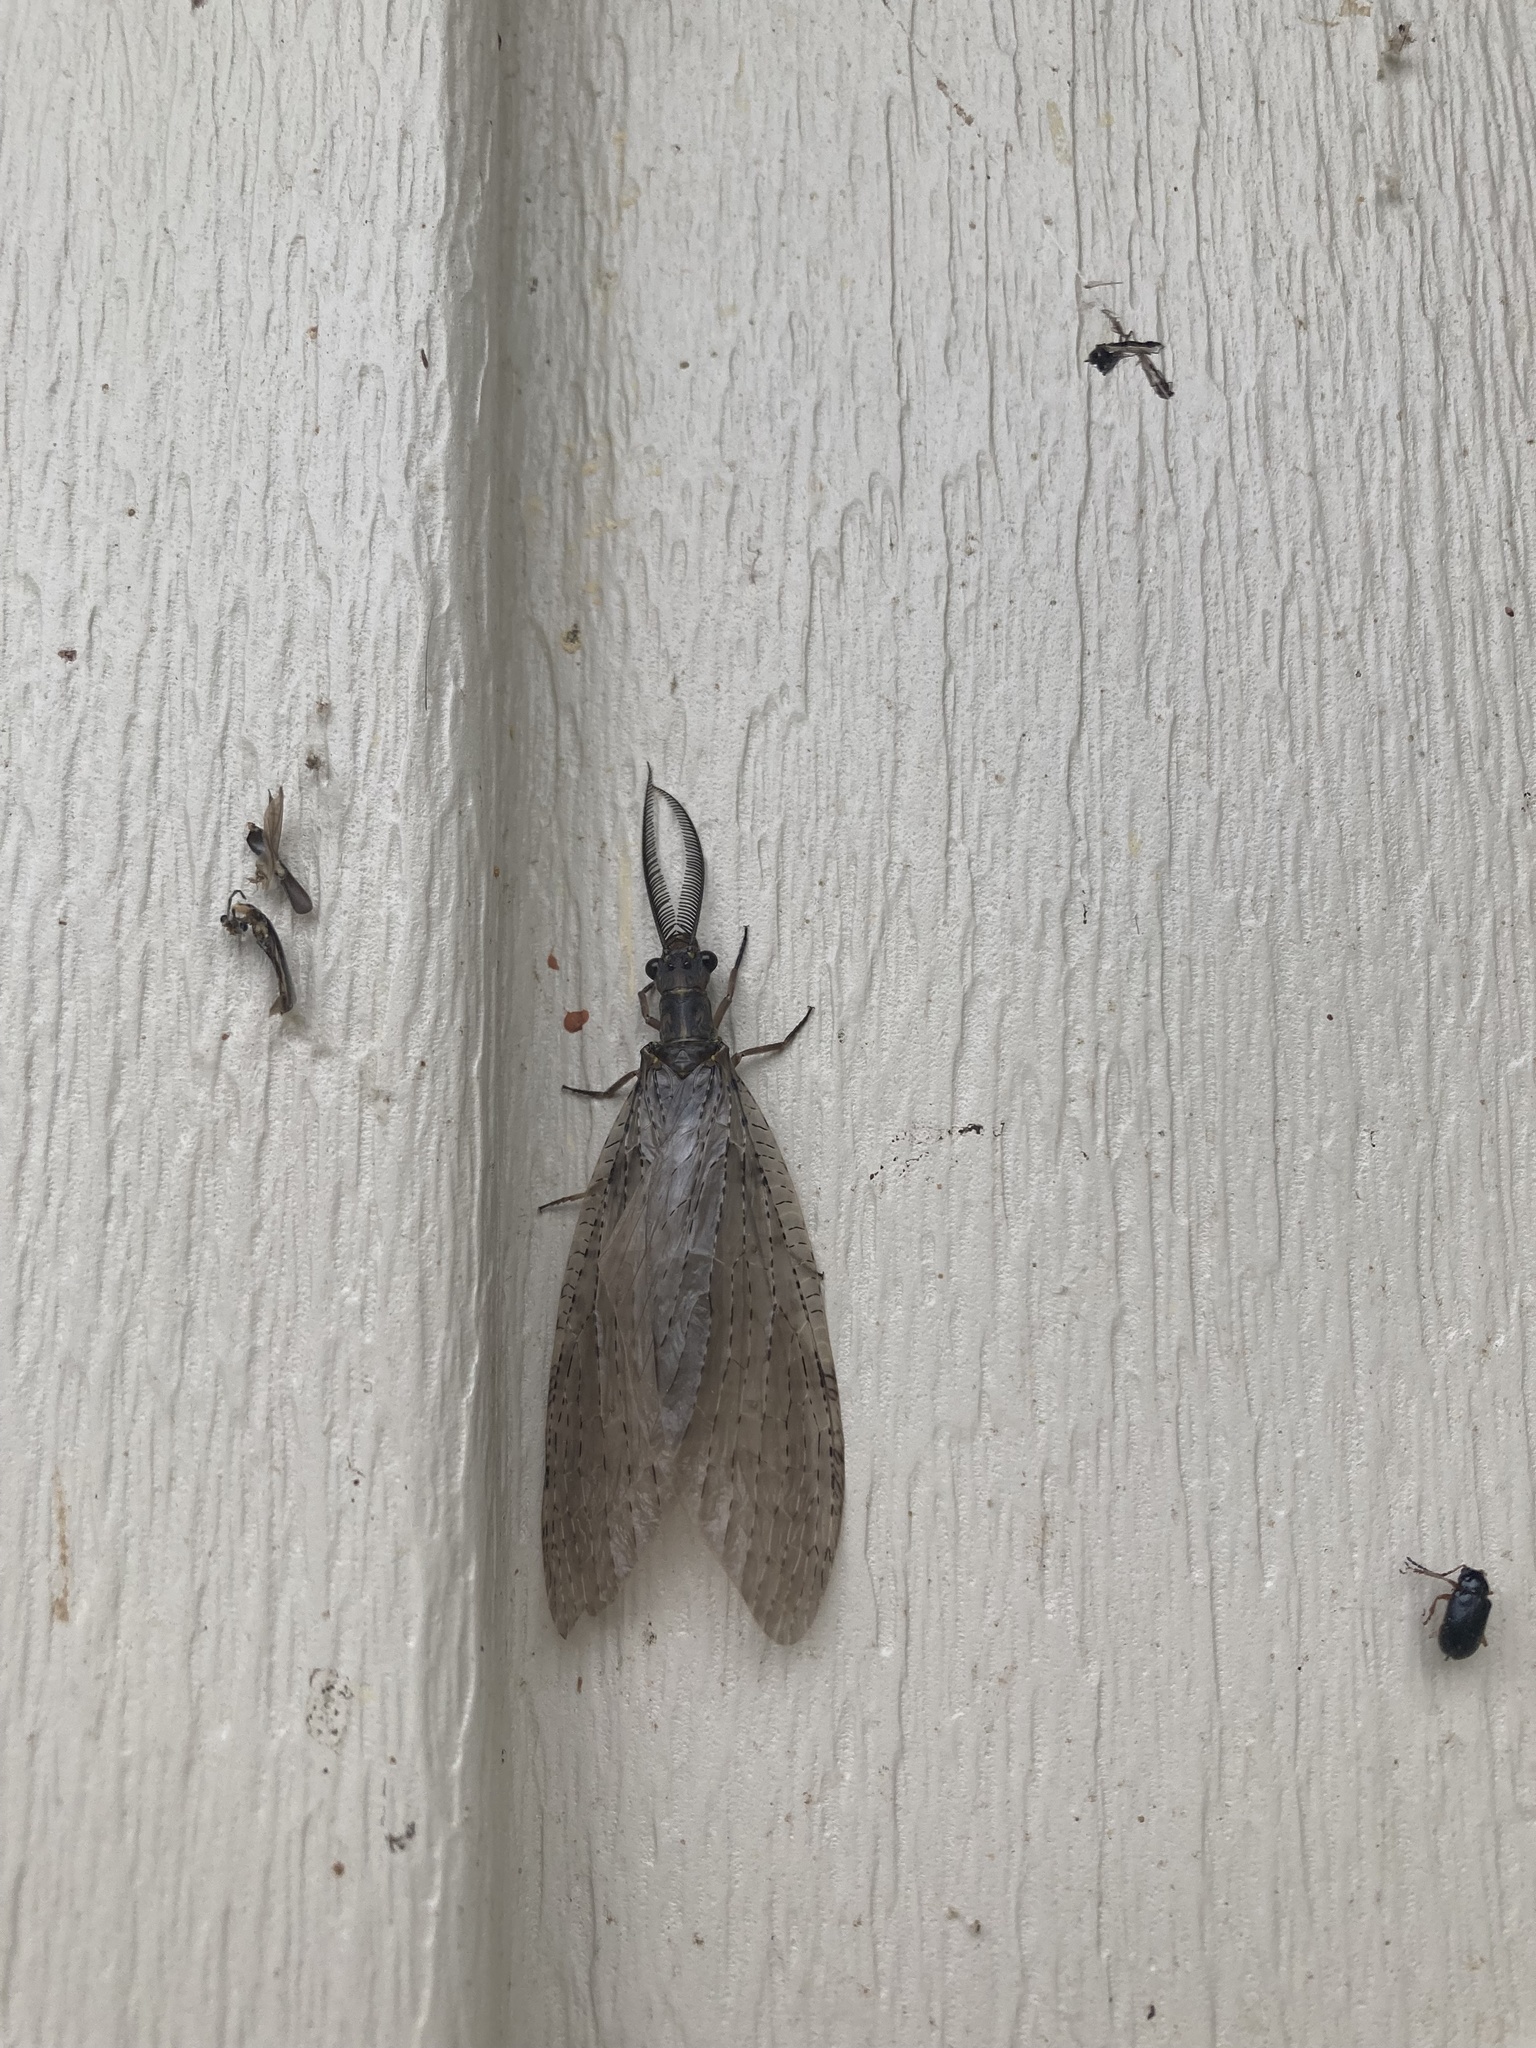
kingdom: Animalia
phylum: Arthropoda
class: Insecta
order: Megaloptera
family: Corydalidae
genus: Chauliodes
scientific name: Chauliodes pectinicornis
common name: Summer fishfly
